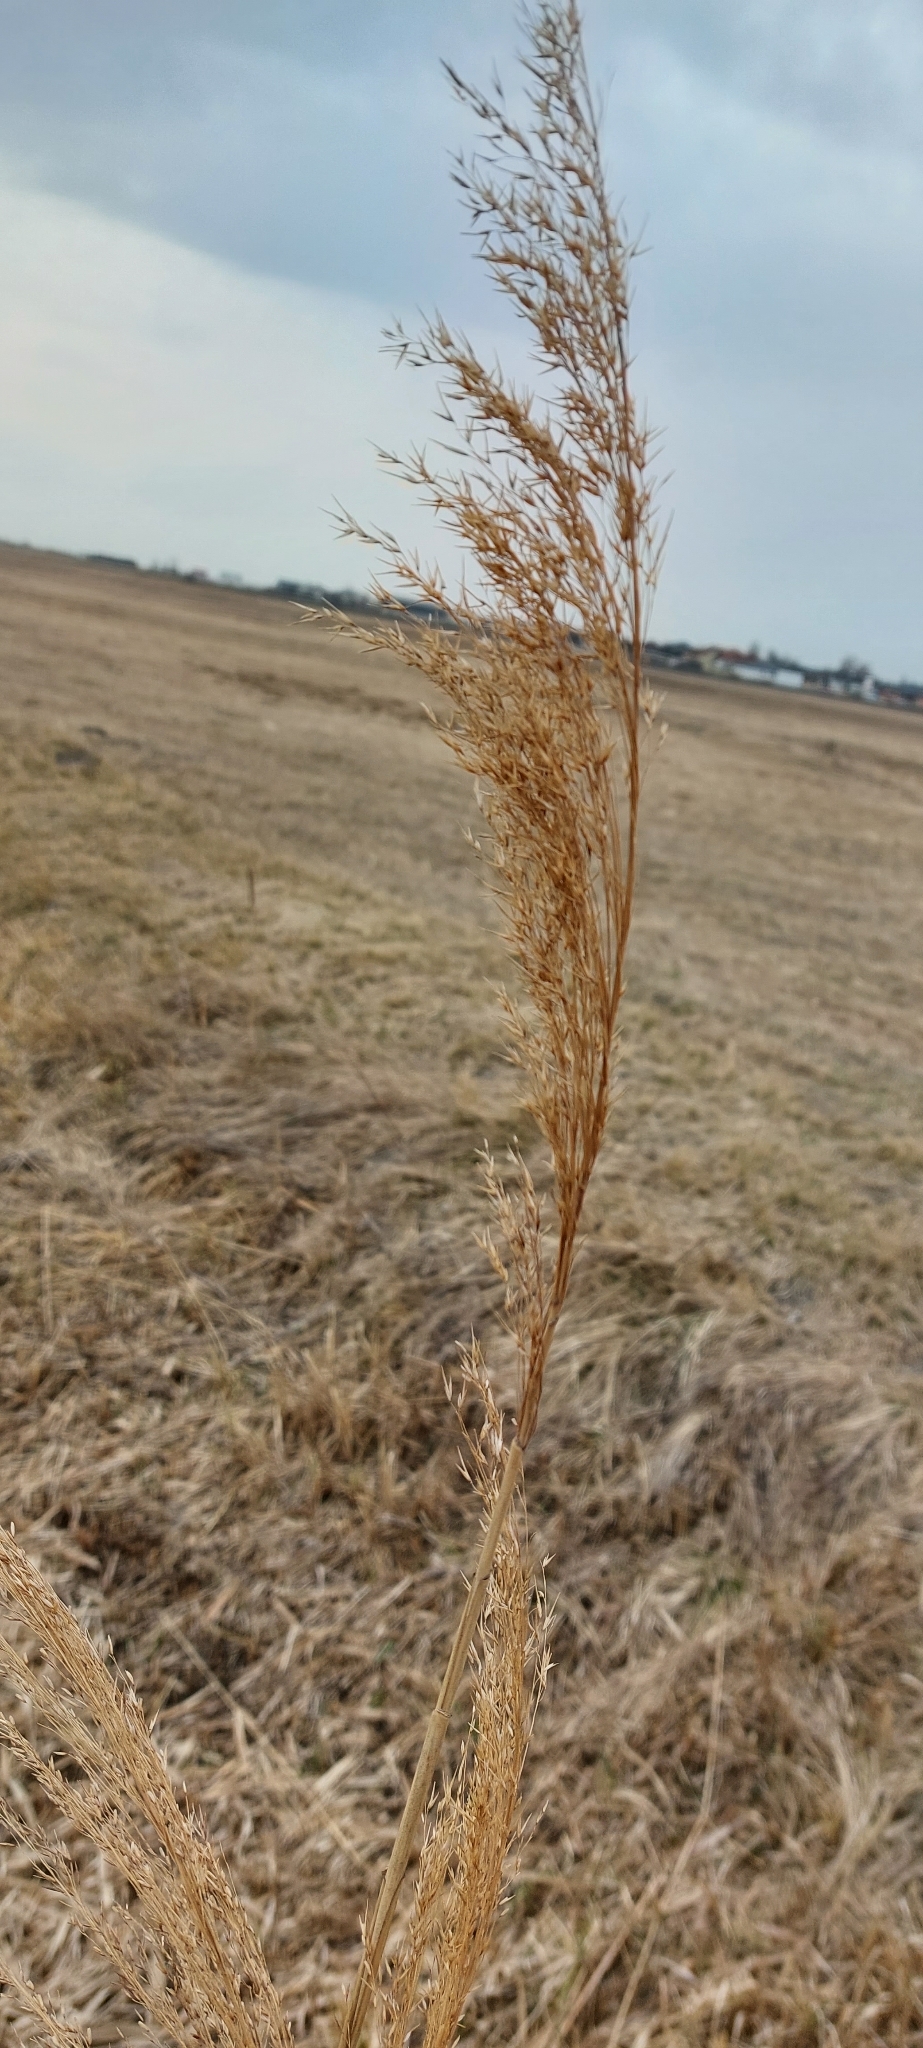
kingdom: Plantae
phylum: Tracheophyta
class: Liliopsida
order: Poales
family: Poaceae
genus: Phragmites
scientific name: Phragmites australis
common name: Common reed
